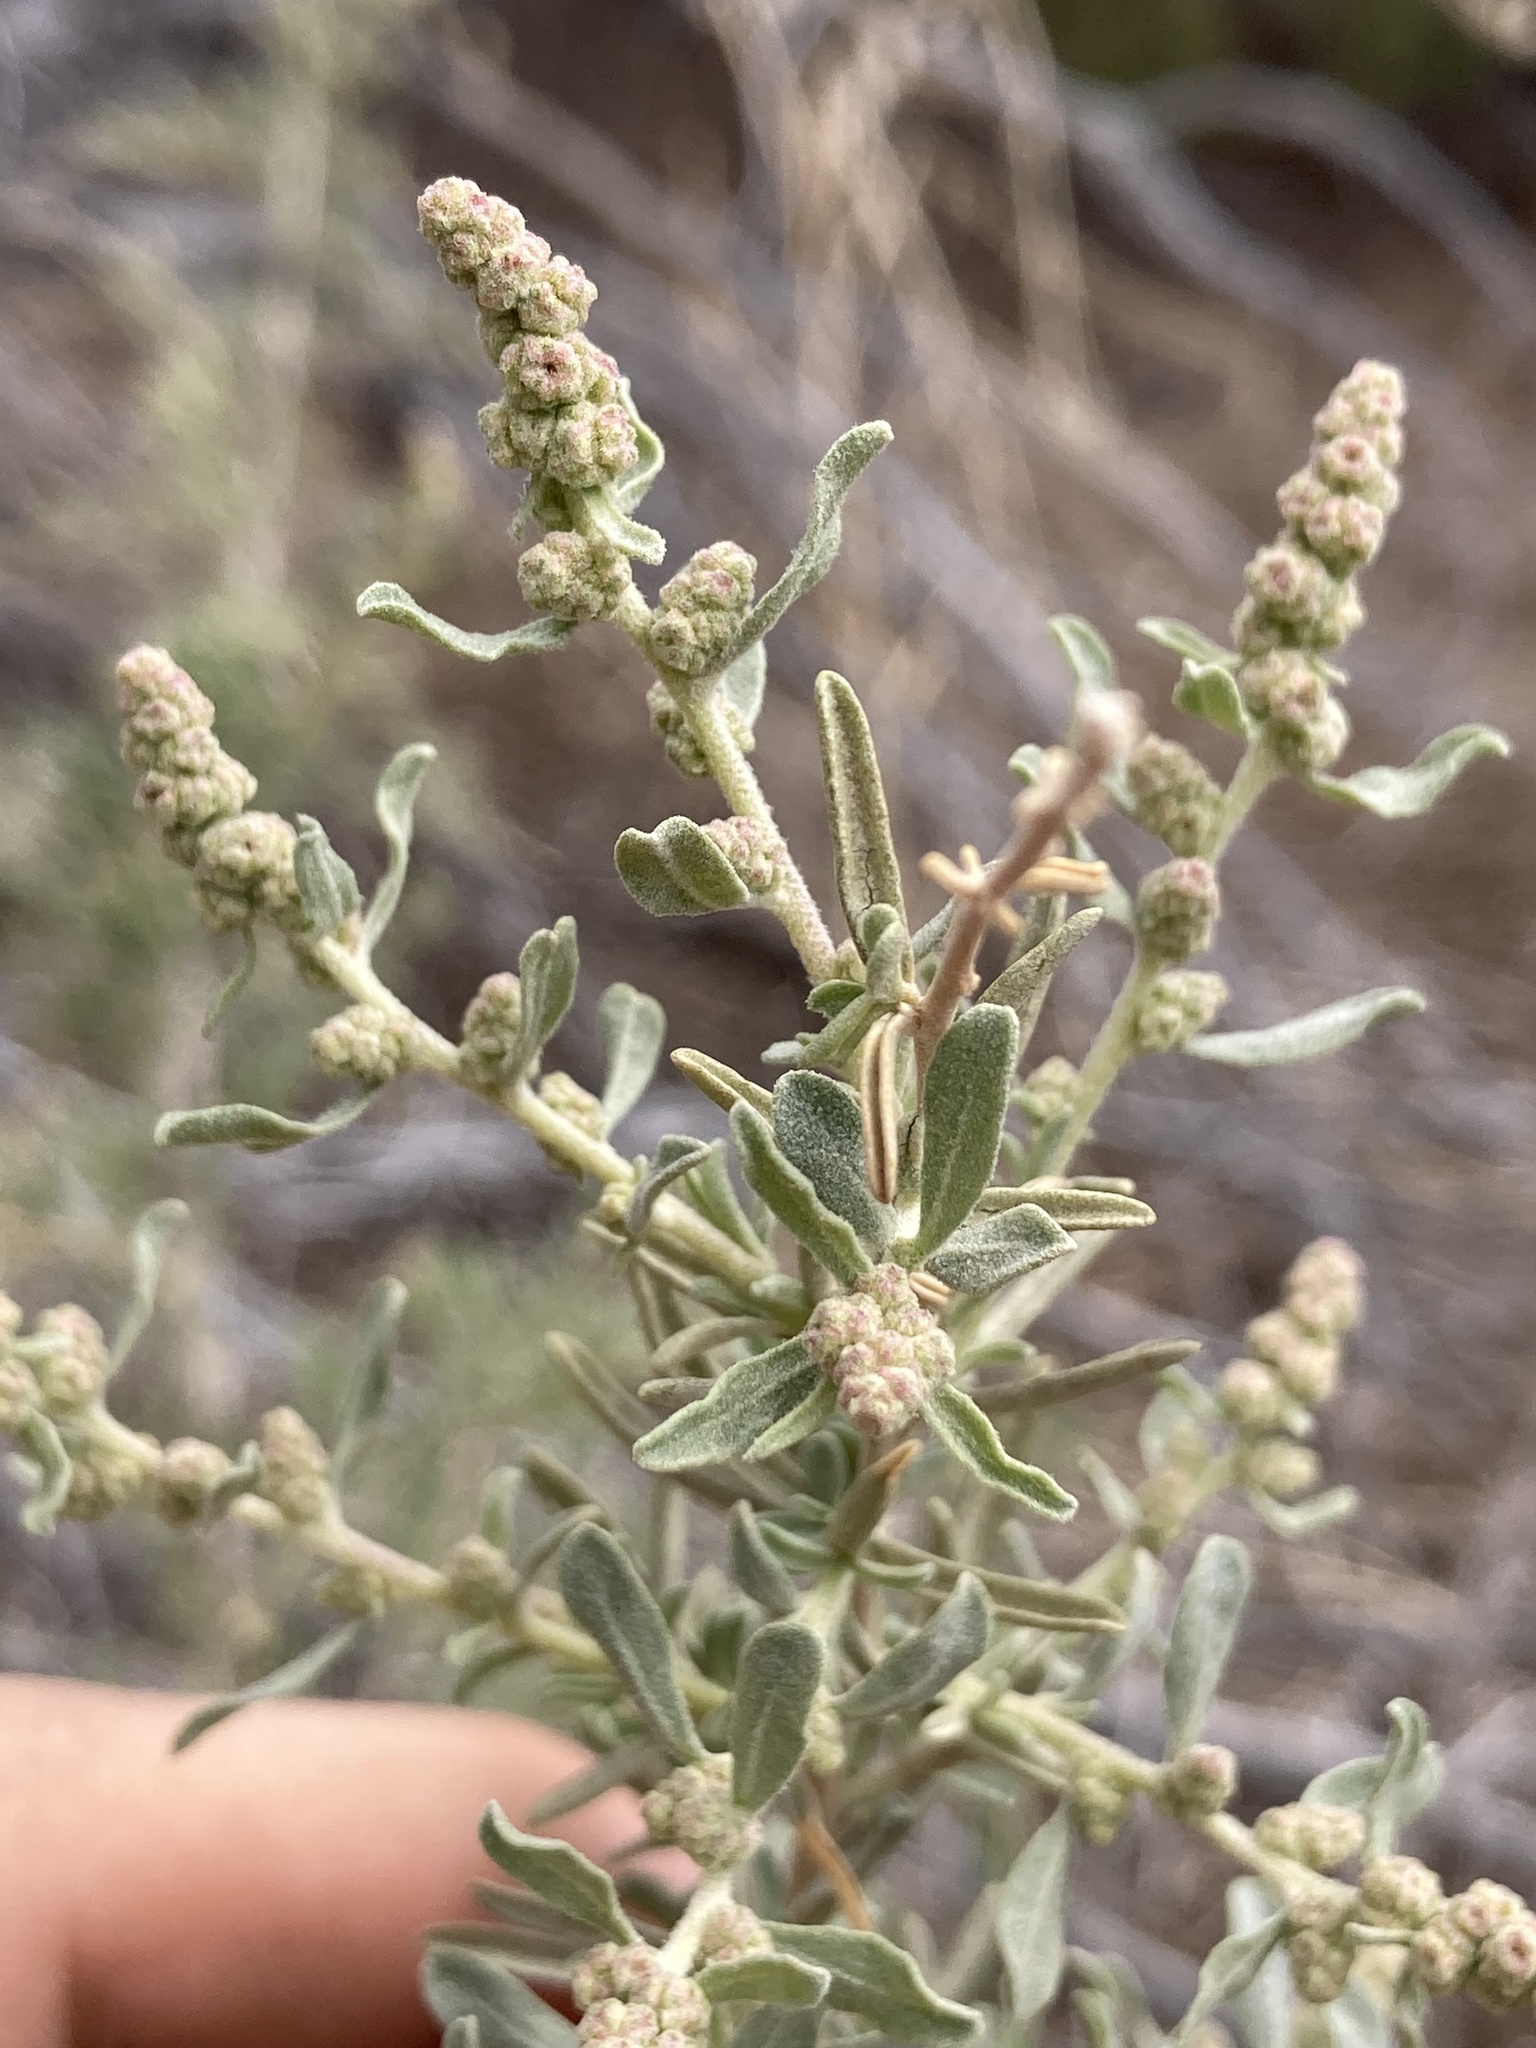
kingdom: Plantae
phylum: Tracheophyta
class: Magnoliopsida
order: Caryophyllales
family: Amaranthaceae
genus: Atriplex
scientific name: Atriplex canescens
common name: Four-wing saltbush
